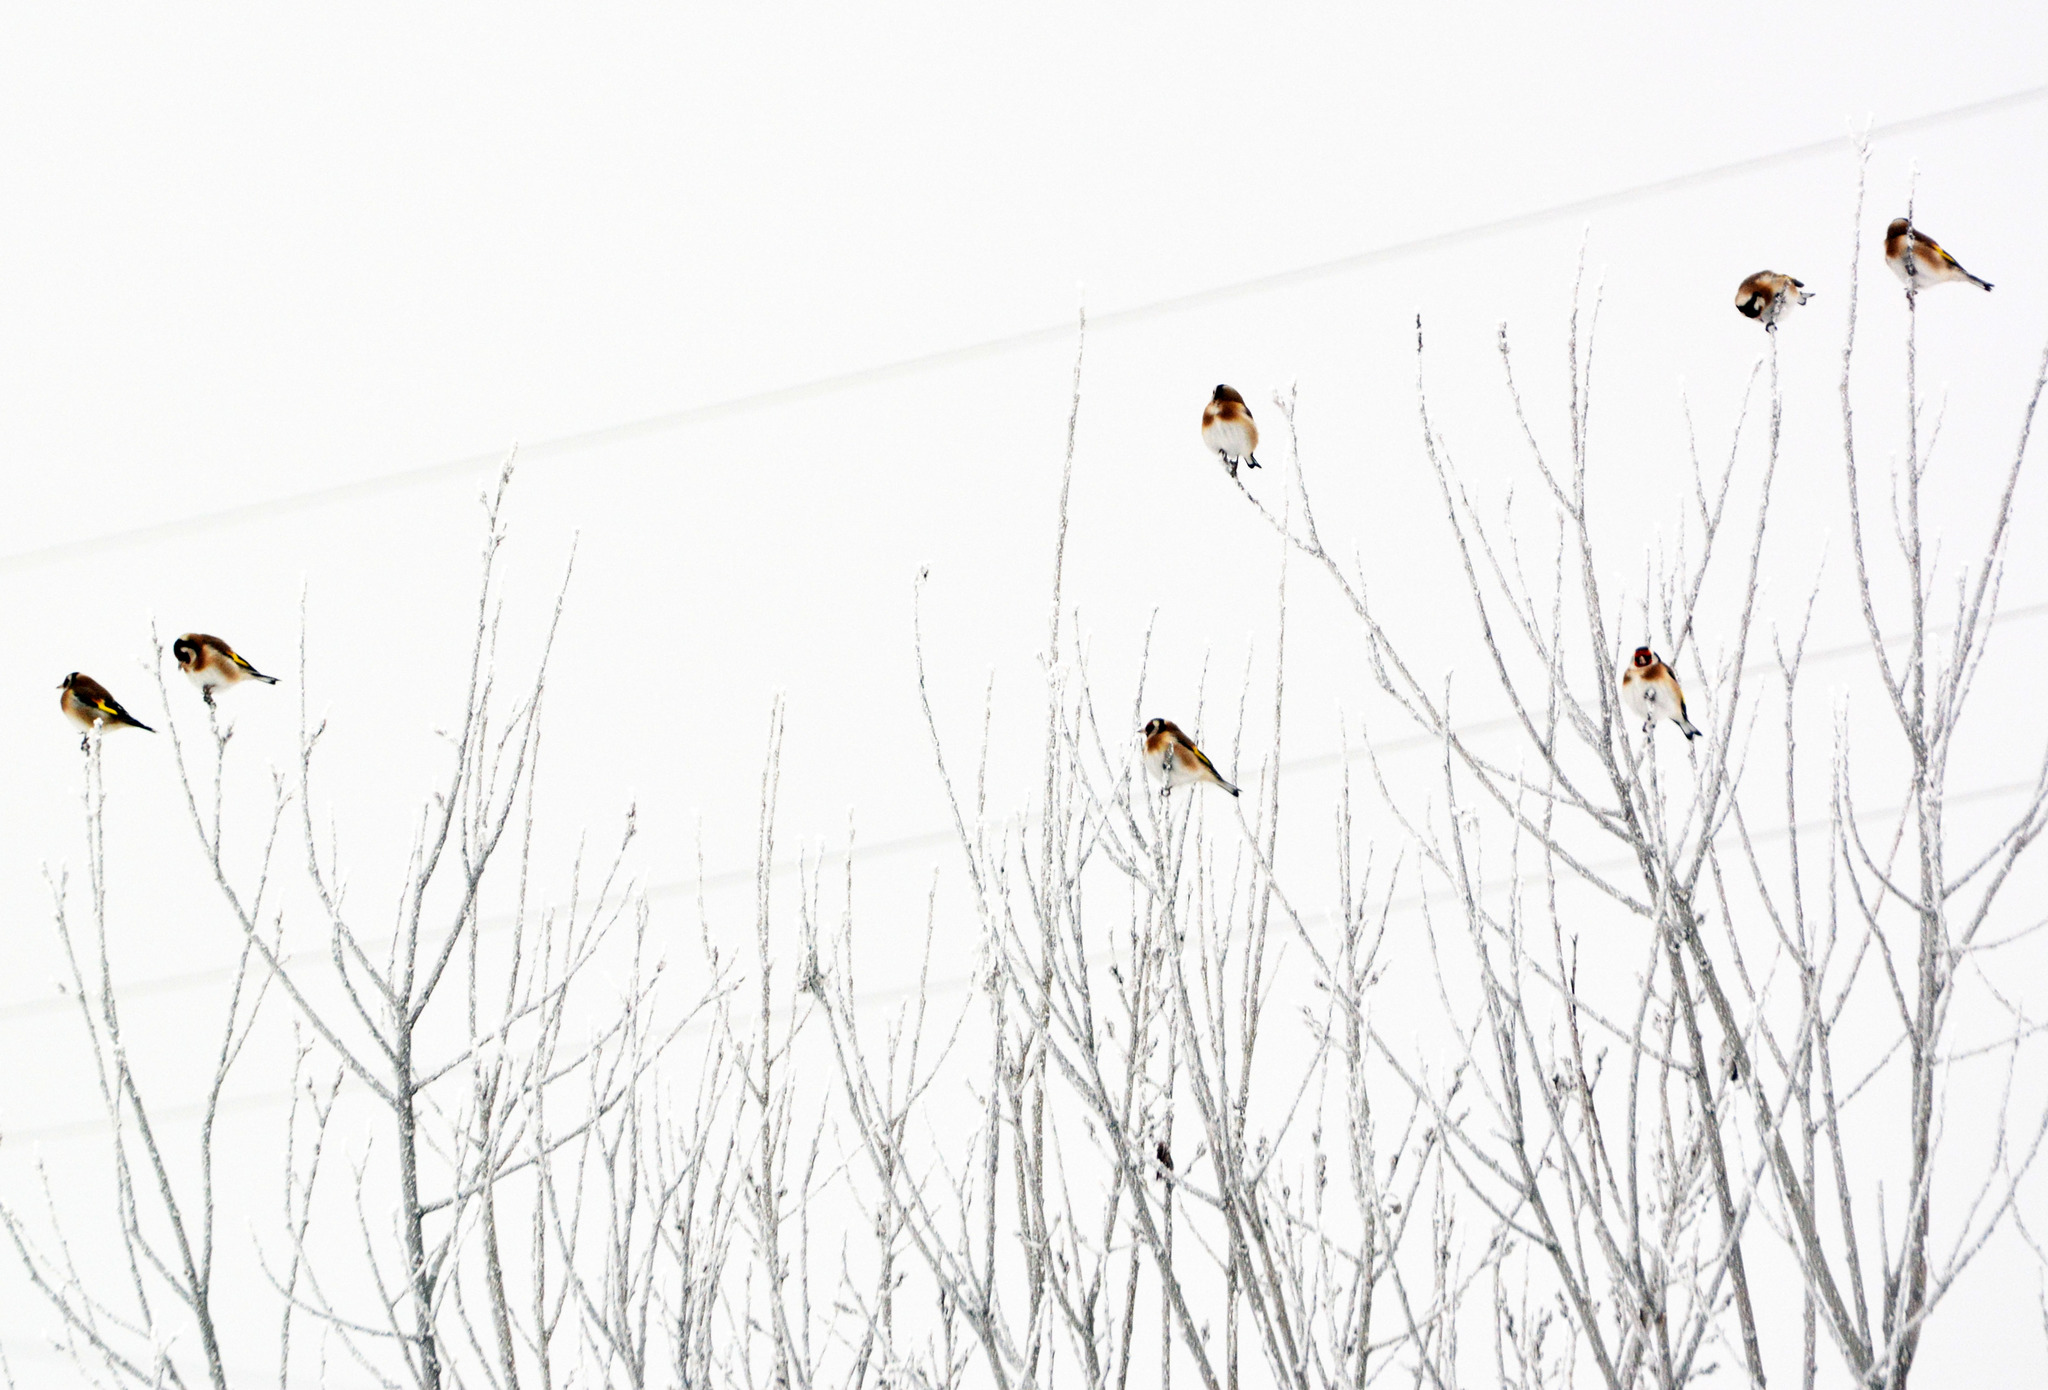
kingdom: Animalia
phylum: Chordata
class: Aves
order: Passeriformes
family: Fringillidae
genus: Carduelis
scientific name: Carduelis carduelis
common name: European goldfinch
